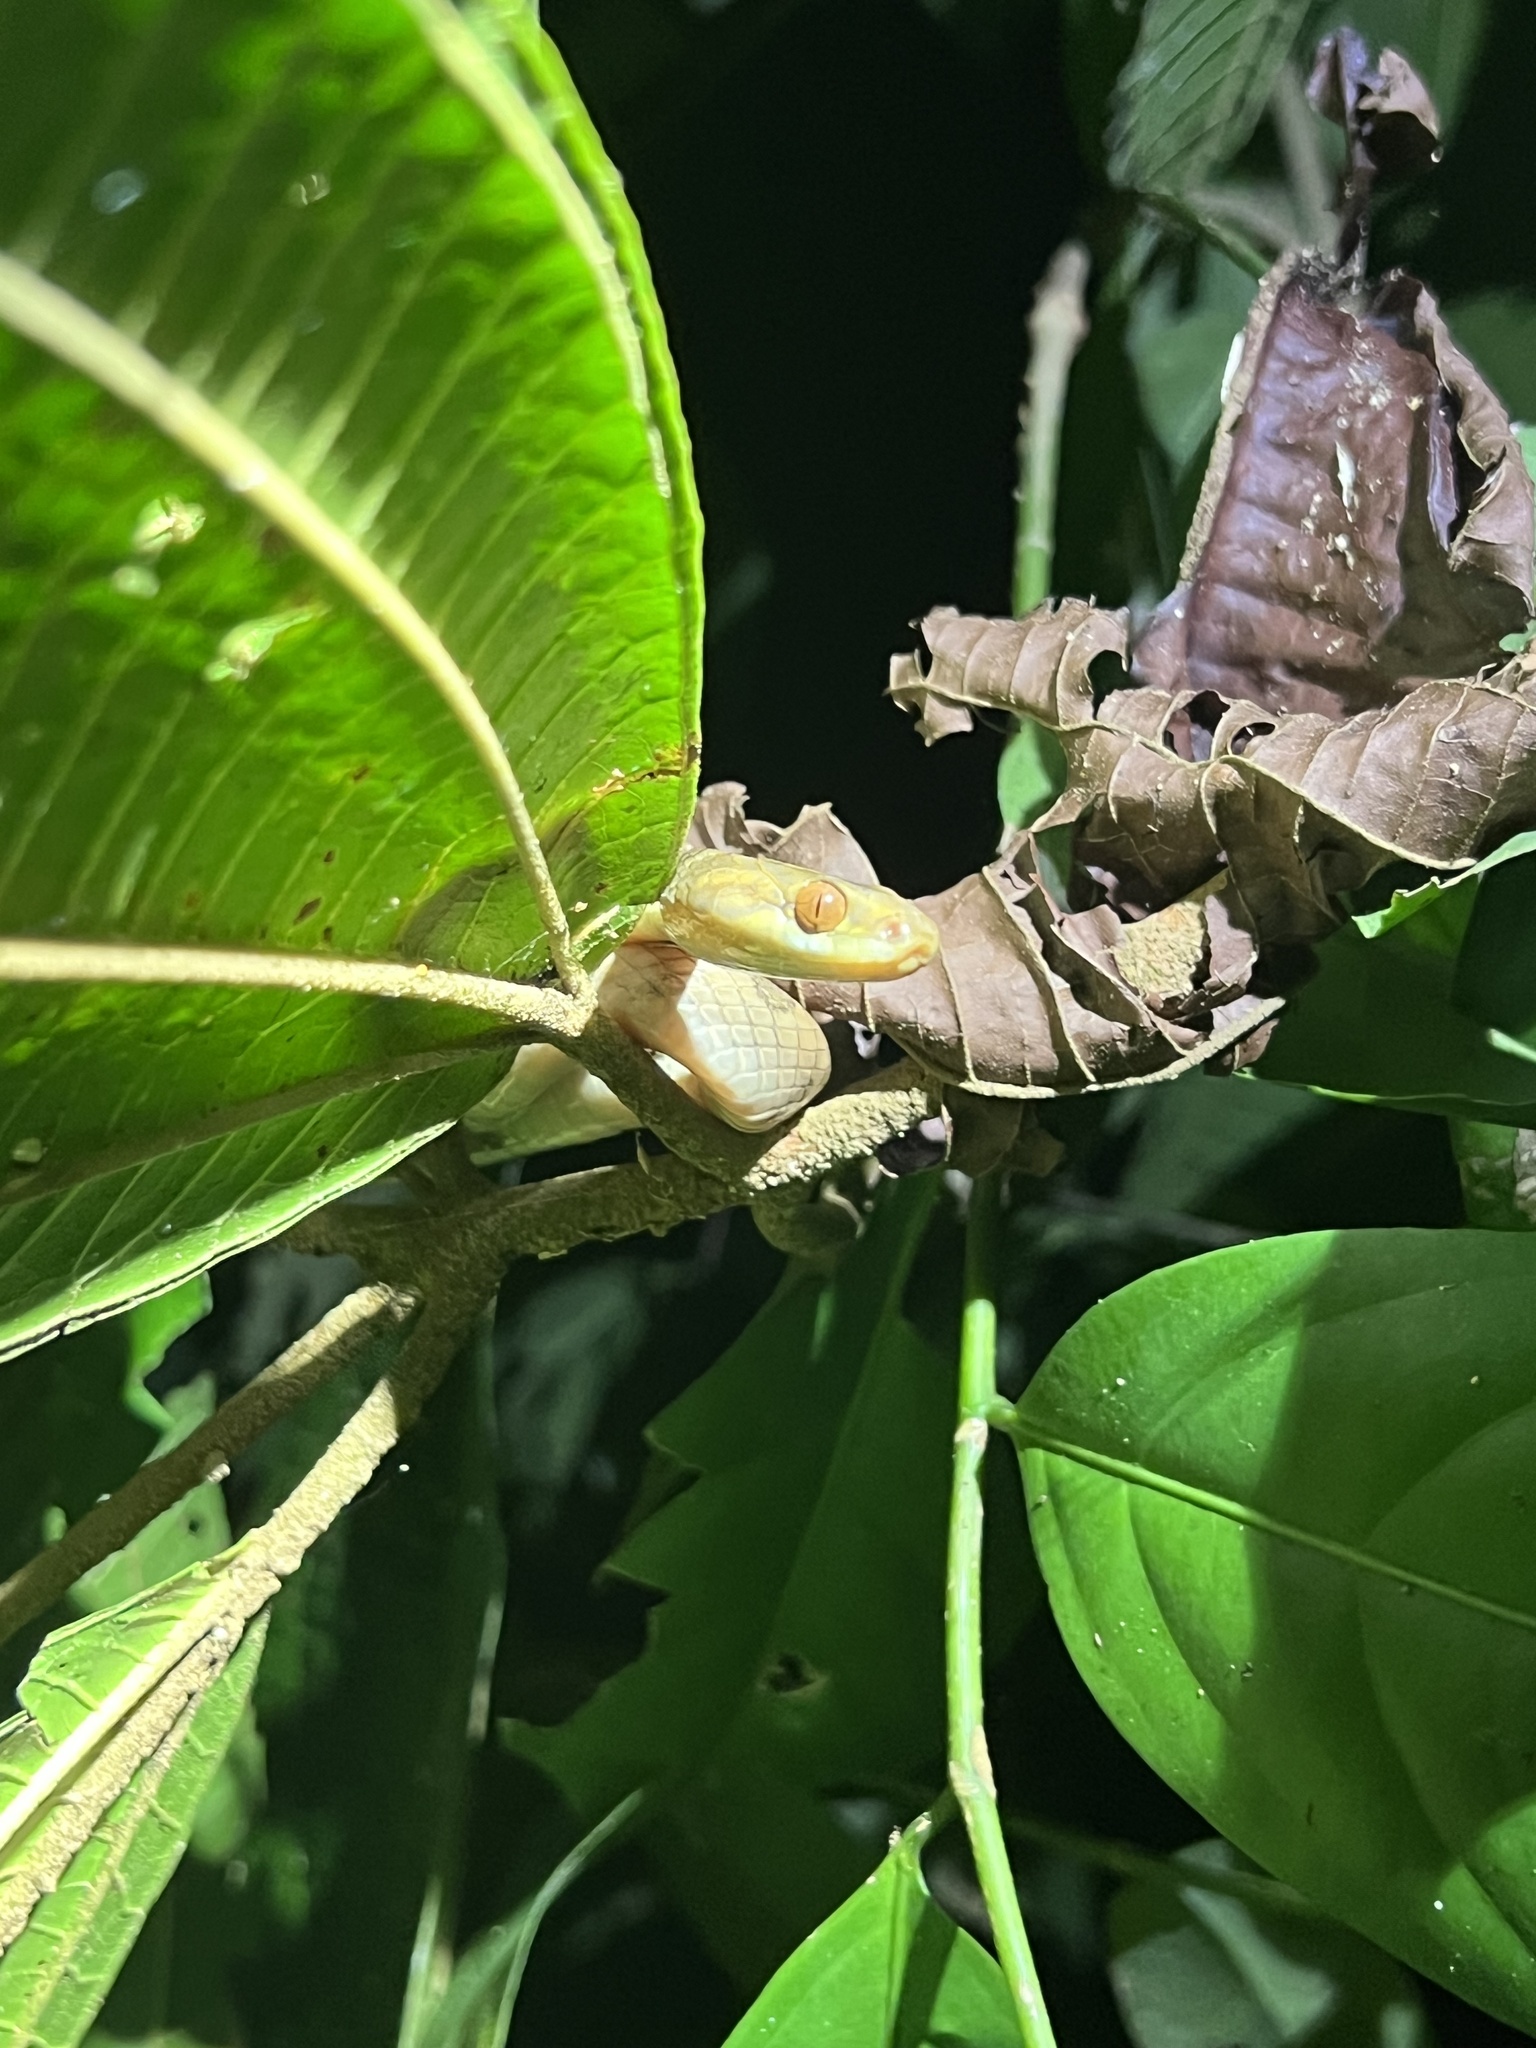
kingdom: Animalia
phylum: Chordata
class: Squamata
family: Colubridae
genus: Leptodeira
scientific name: Leptodeira ornata
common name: Northern cat-eyed snake
